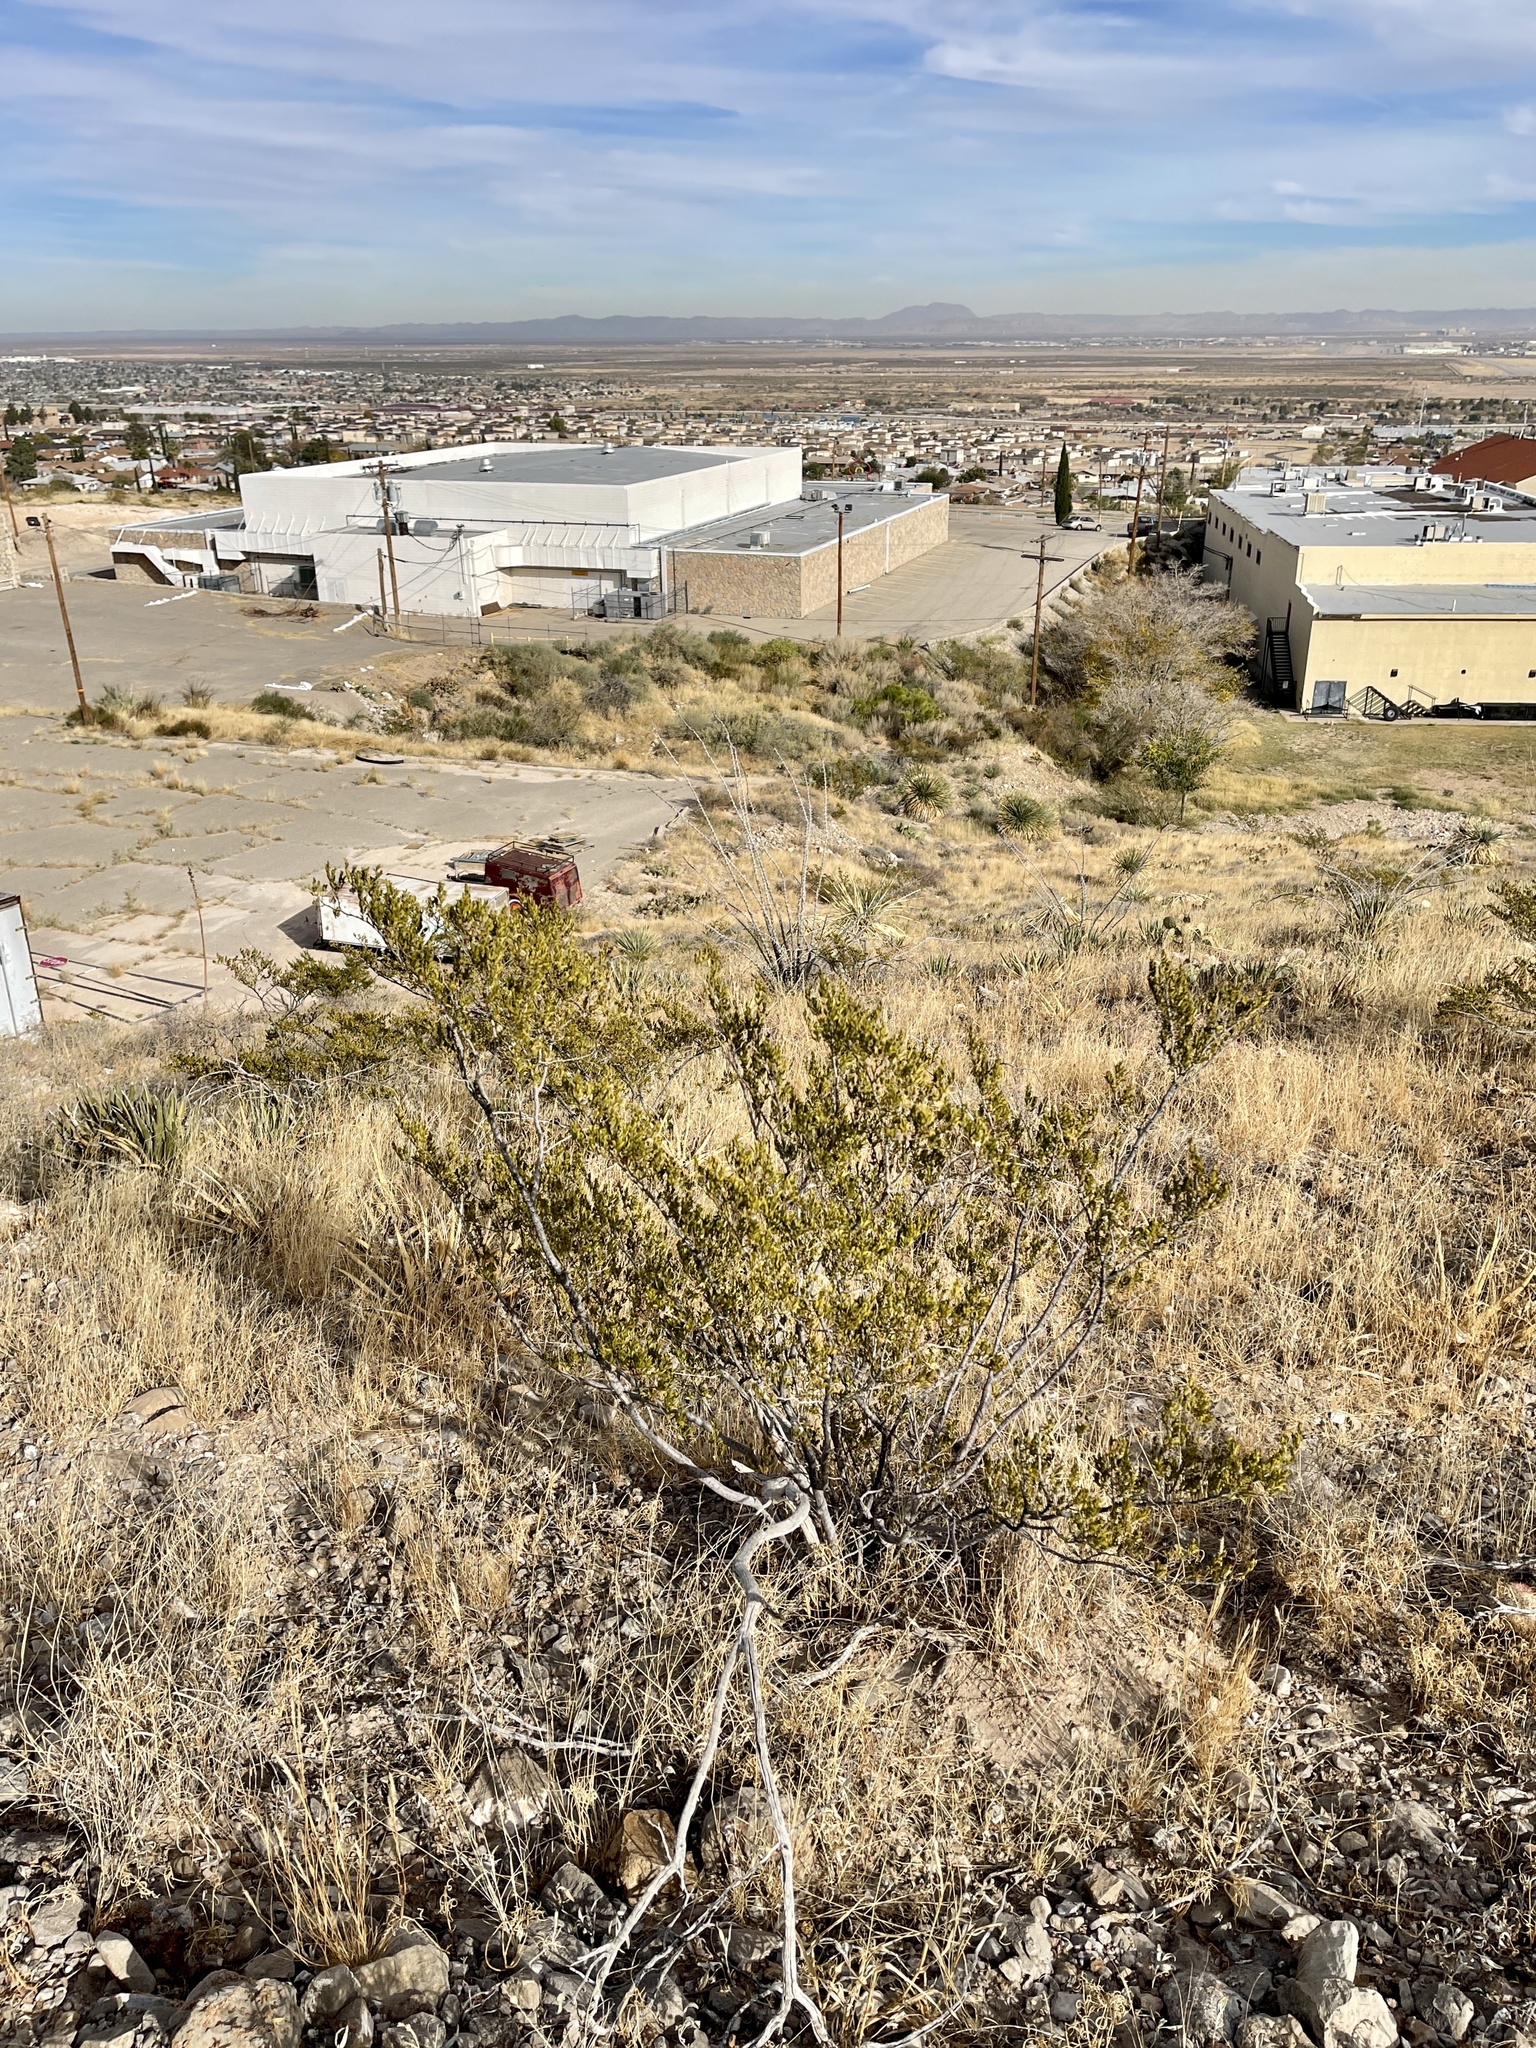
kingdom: Plantae
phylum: Tracheophyta
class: Magnoliopsida
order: Zygophyllales
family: Zygophyllaceae
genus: Larrea
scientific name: Larrea tridentata
